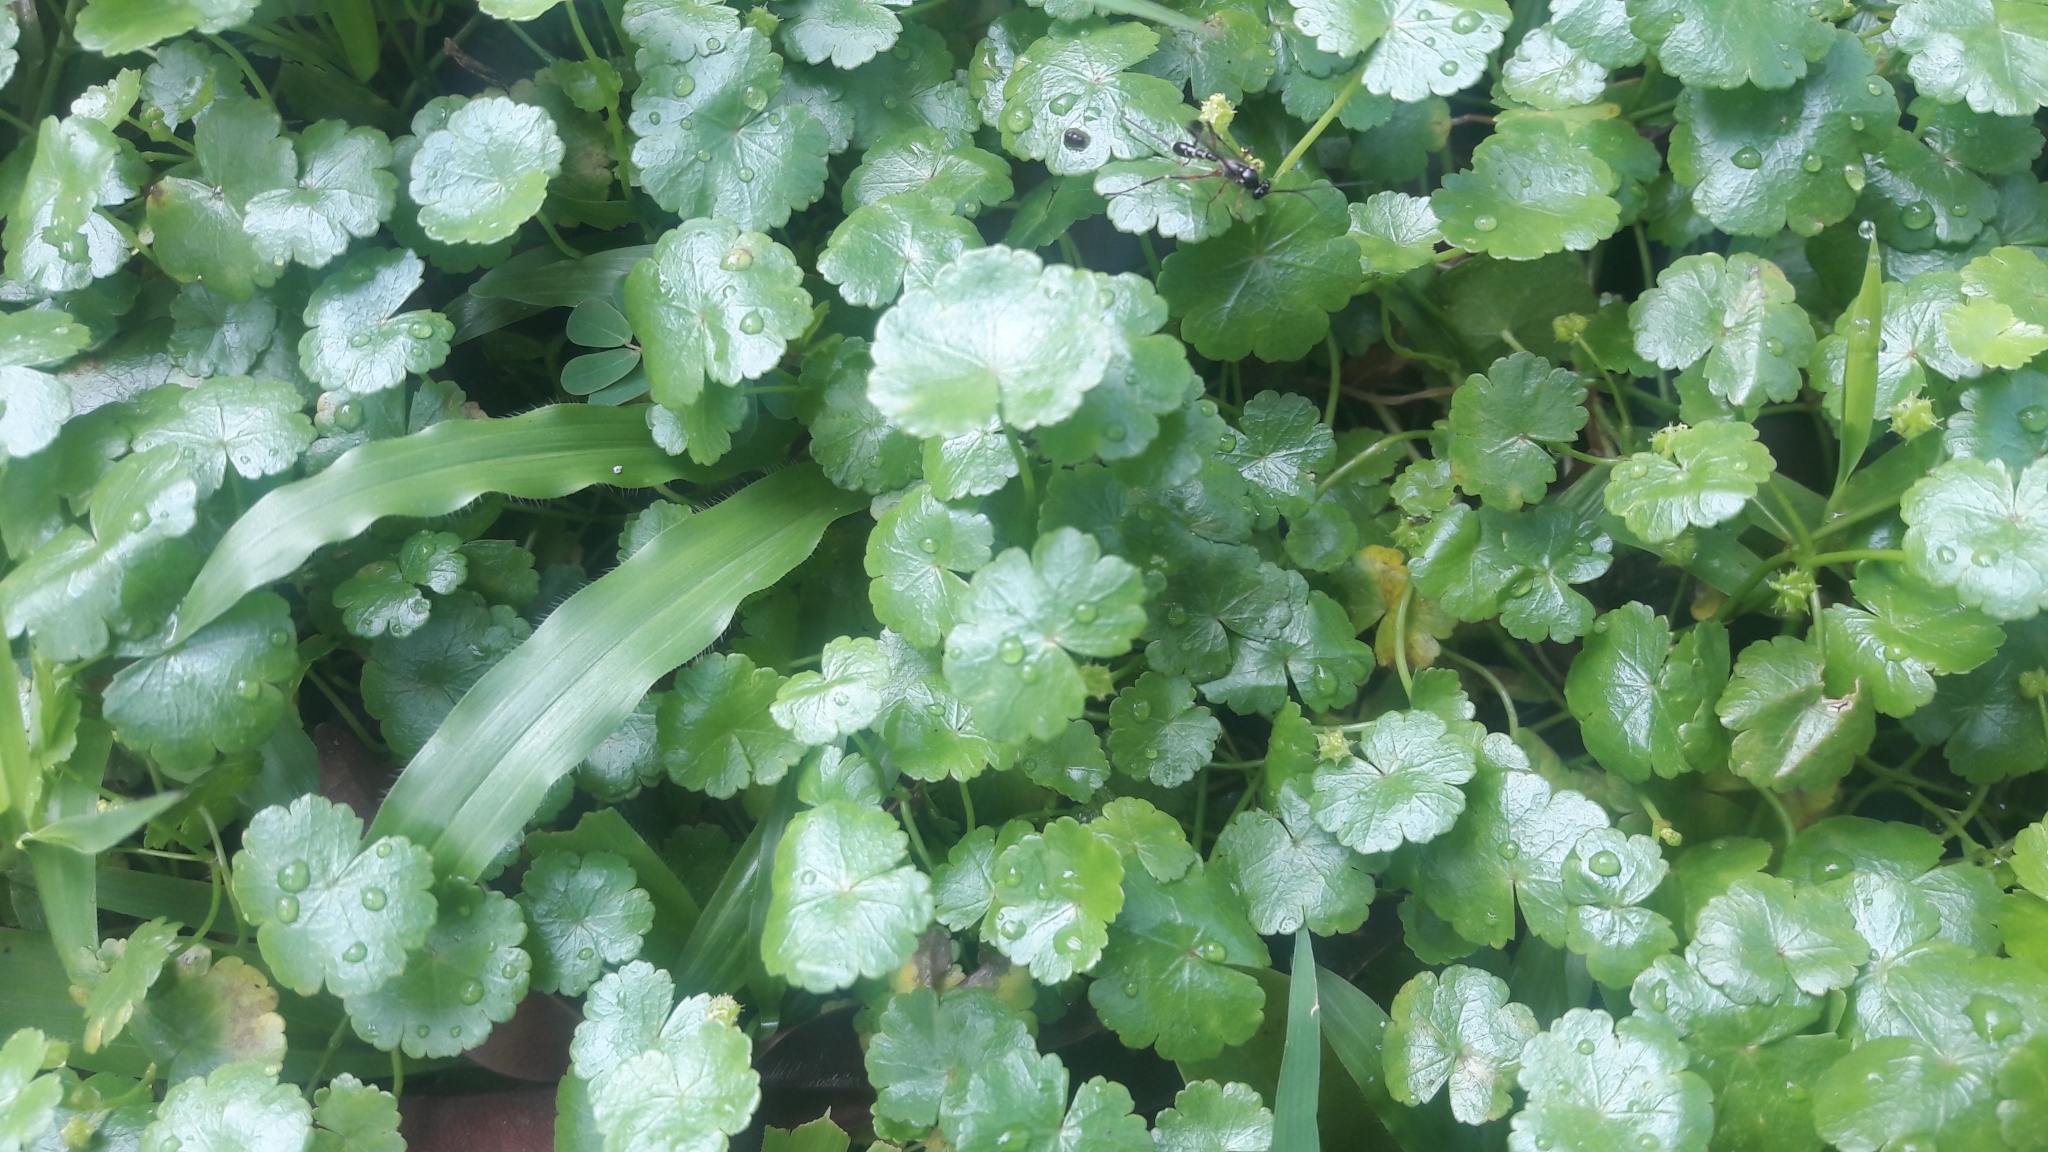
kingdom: Plantae
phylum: Tracheophyta
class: Magnoliopsida
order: Apiales
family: Araliaceae
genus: Hydrocotyle
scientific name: Hydrocotyle sibthorpioides
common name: Lawn marshpennywort
